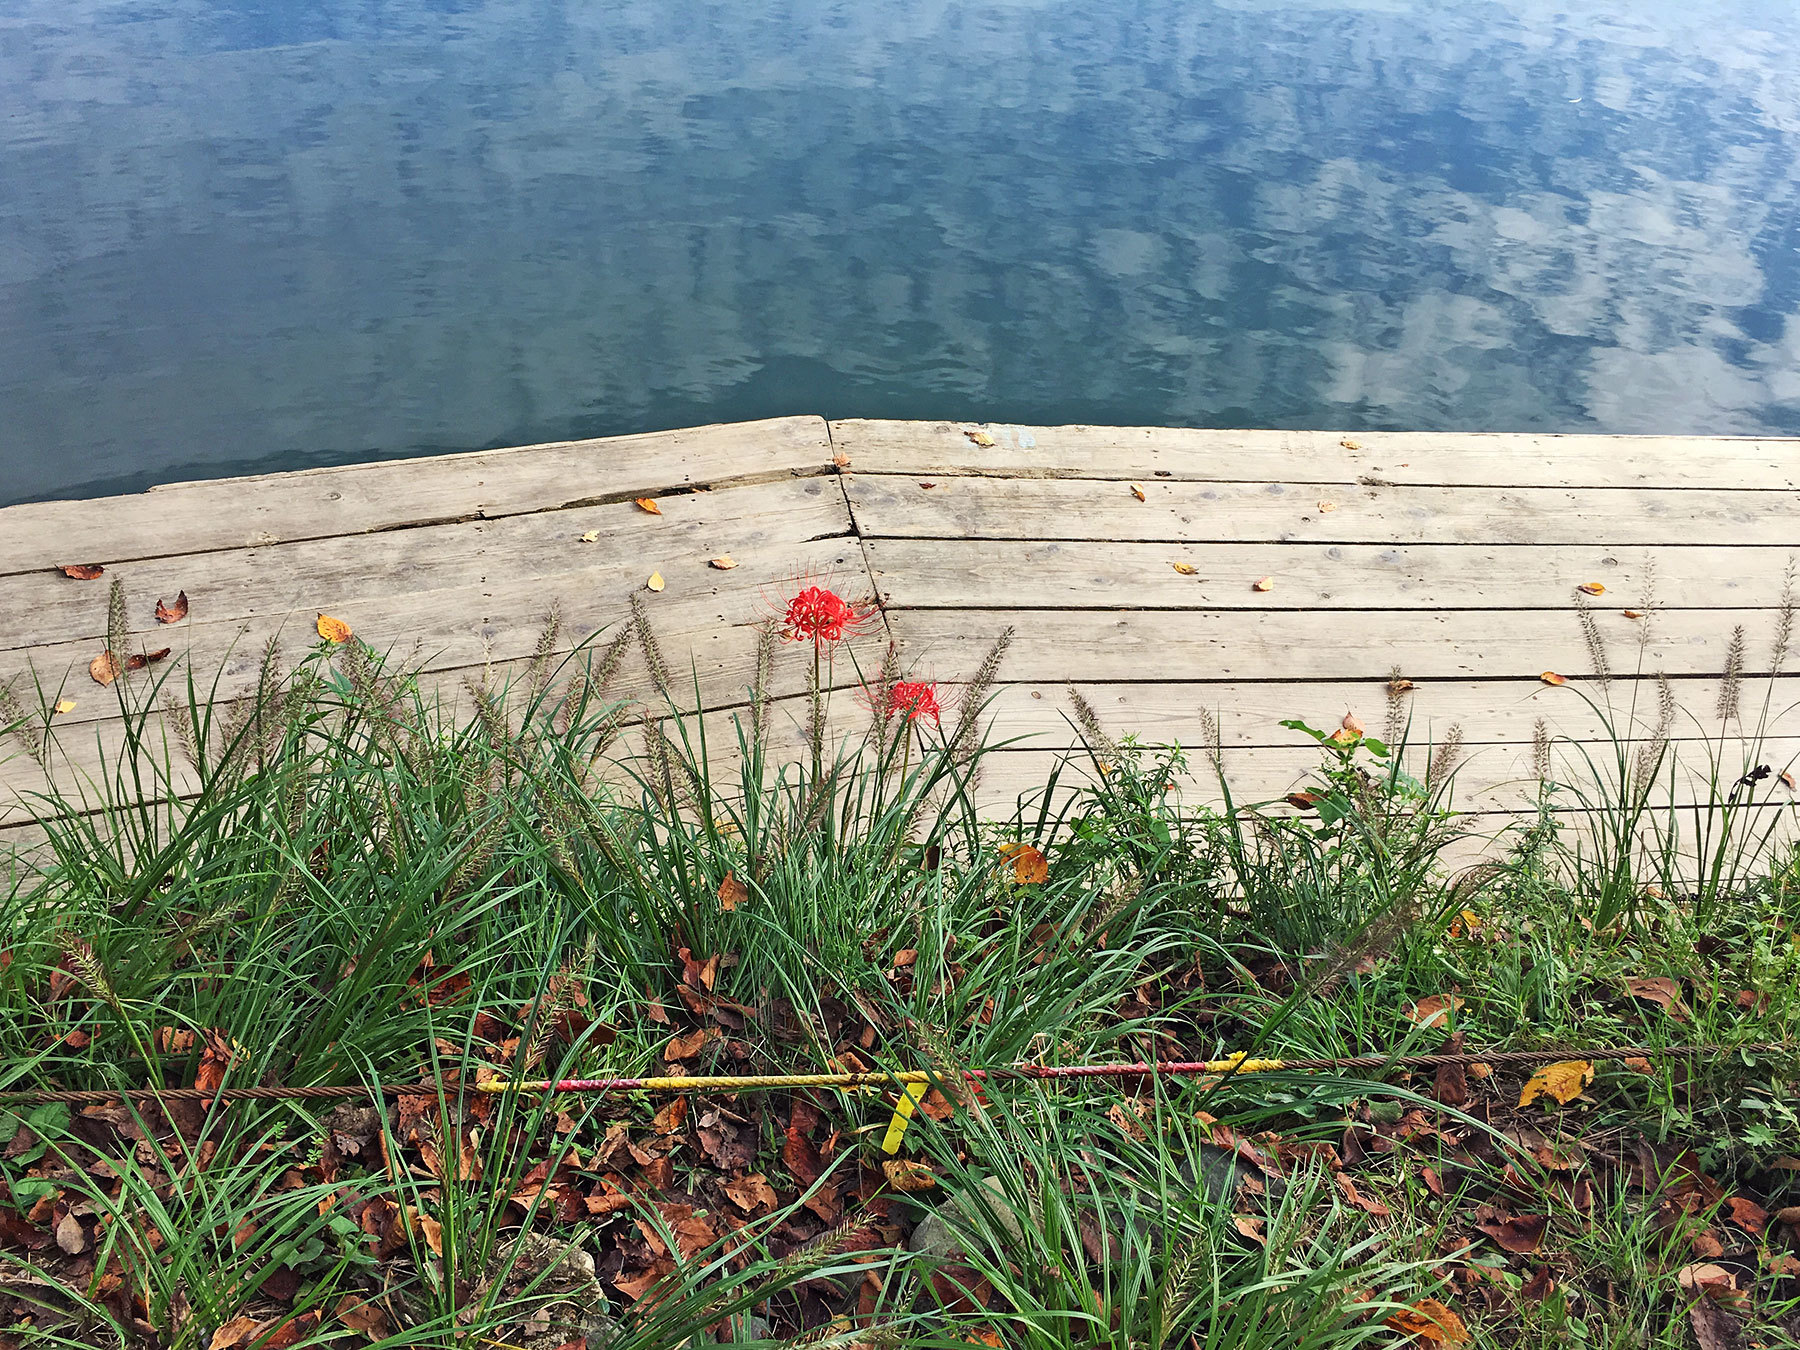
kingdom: Plantae
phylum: Tracheophyta
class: Liliopsida
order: Asparagales
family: Amaryllidaceae
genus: Lycoris
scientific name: Lycoris radiata
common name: Red spider lily
